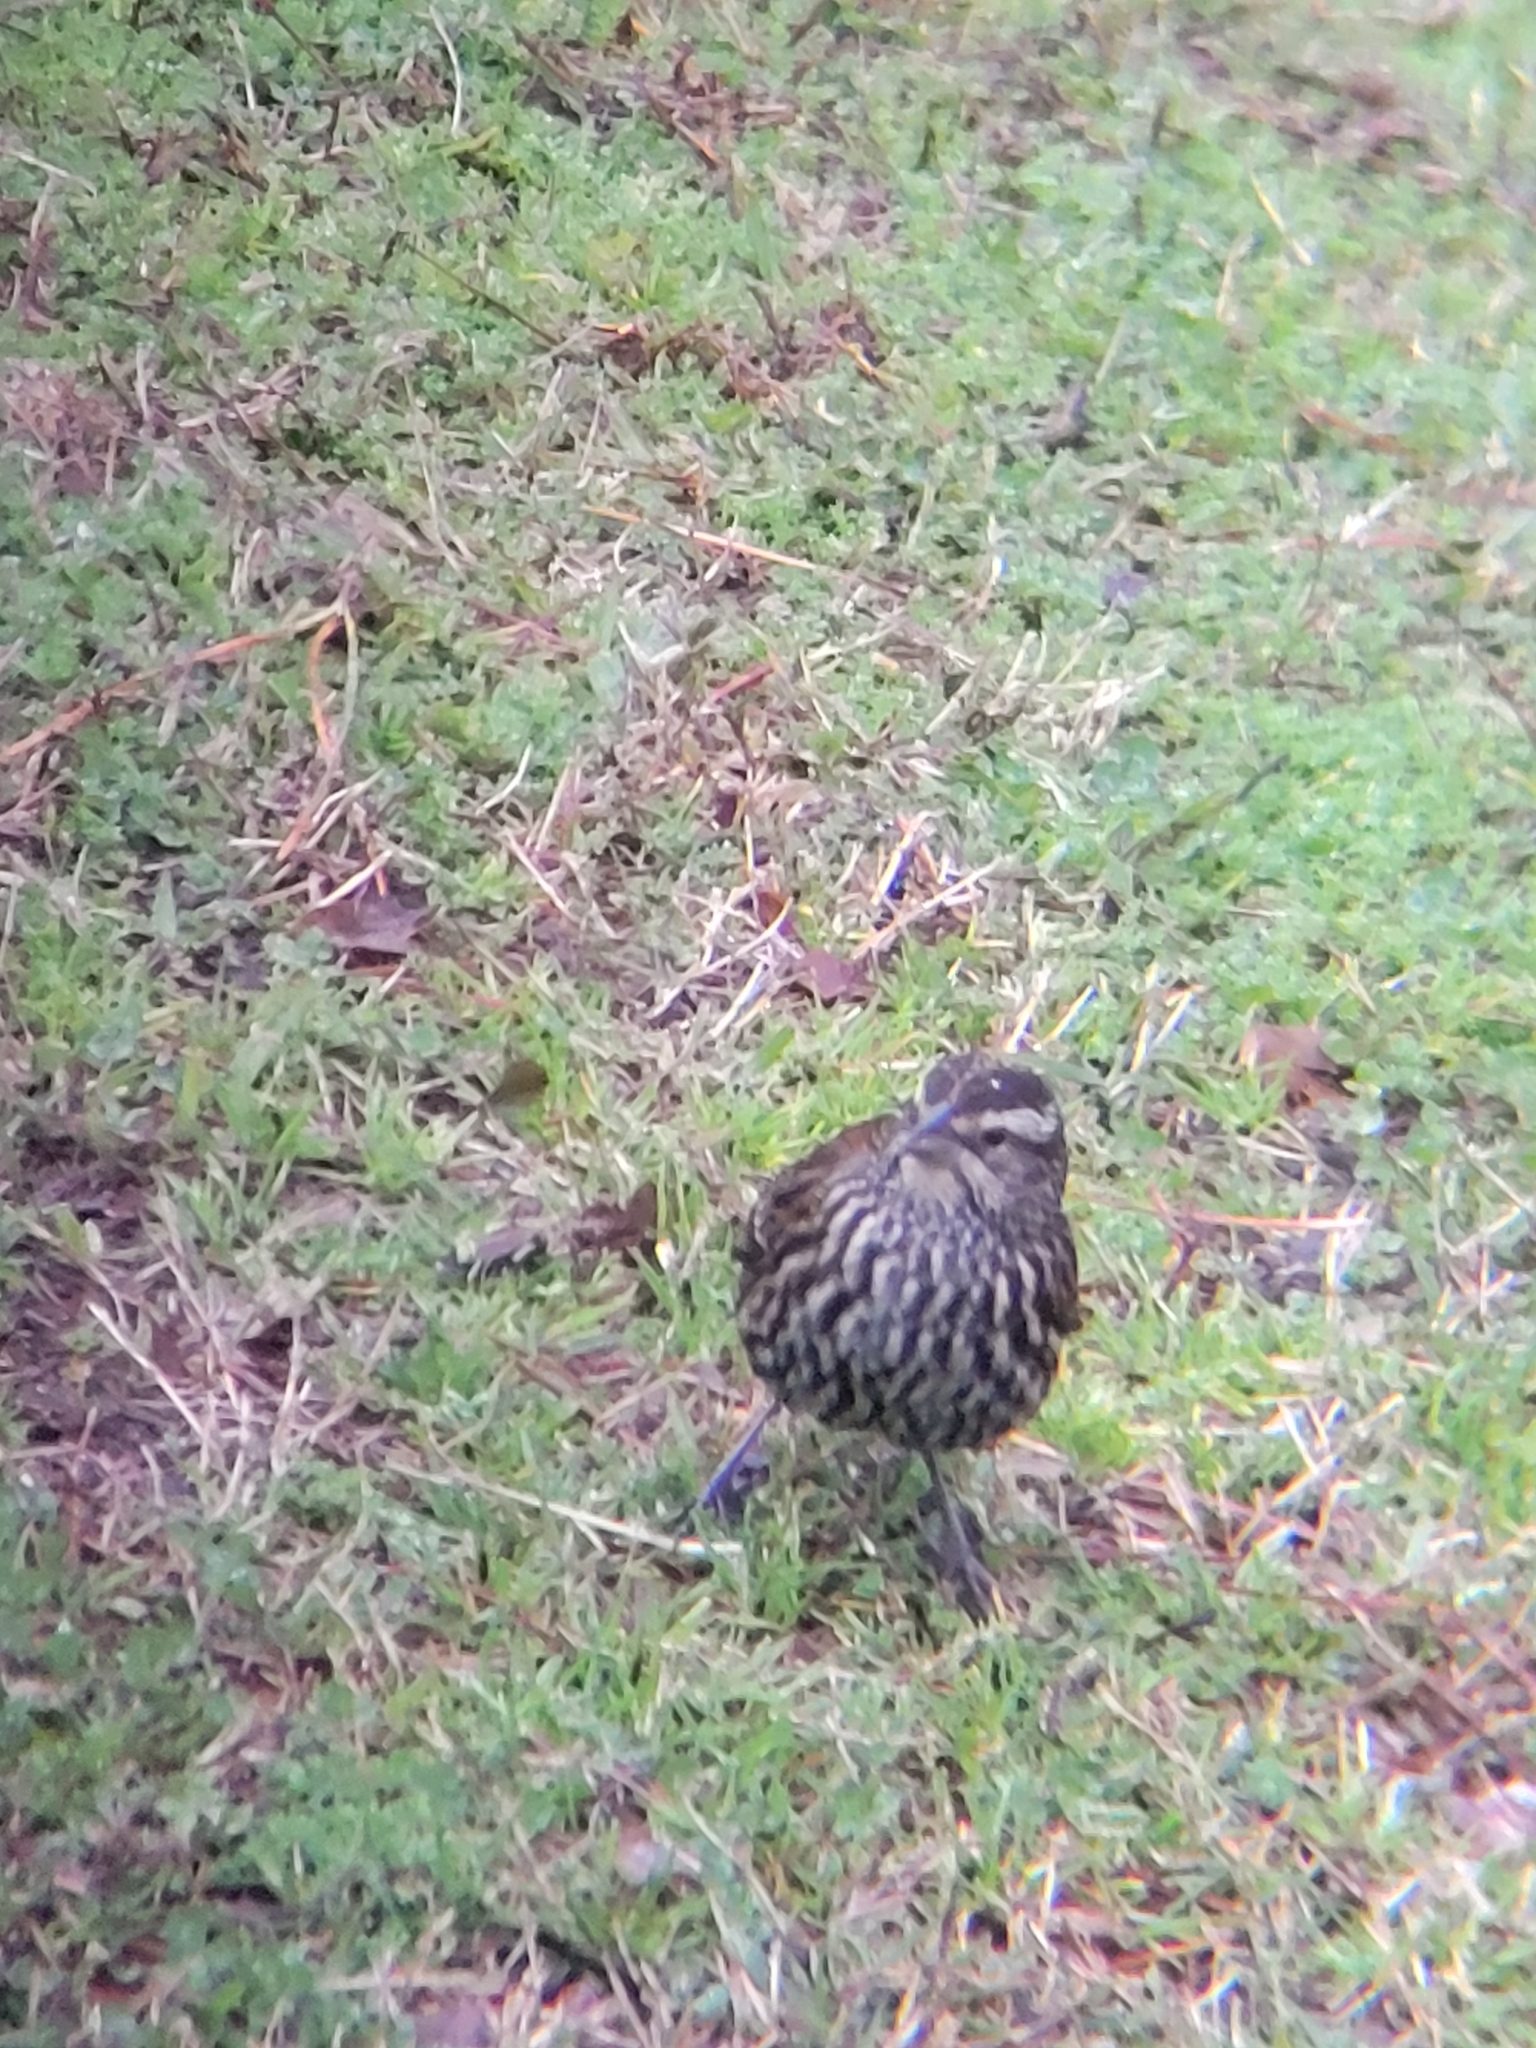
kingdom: Animalia
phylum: Chordata
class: Aves
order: Passeriformes
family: Icteridae
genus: Agelaius
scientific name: Agelaius phoeniceus
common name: Red-winged blackbird
